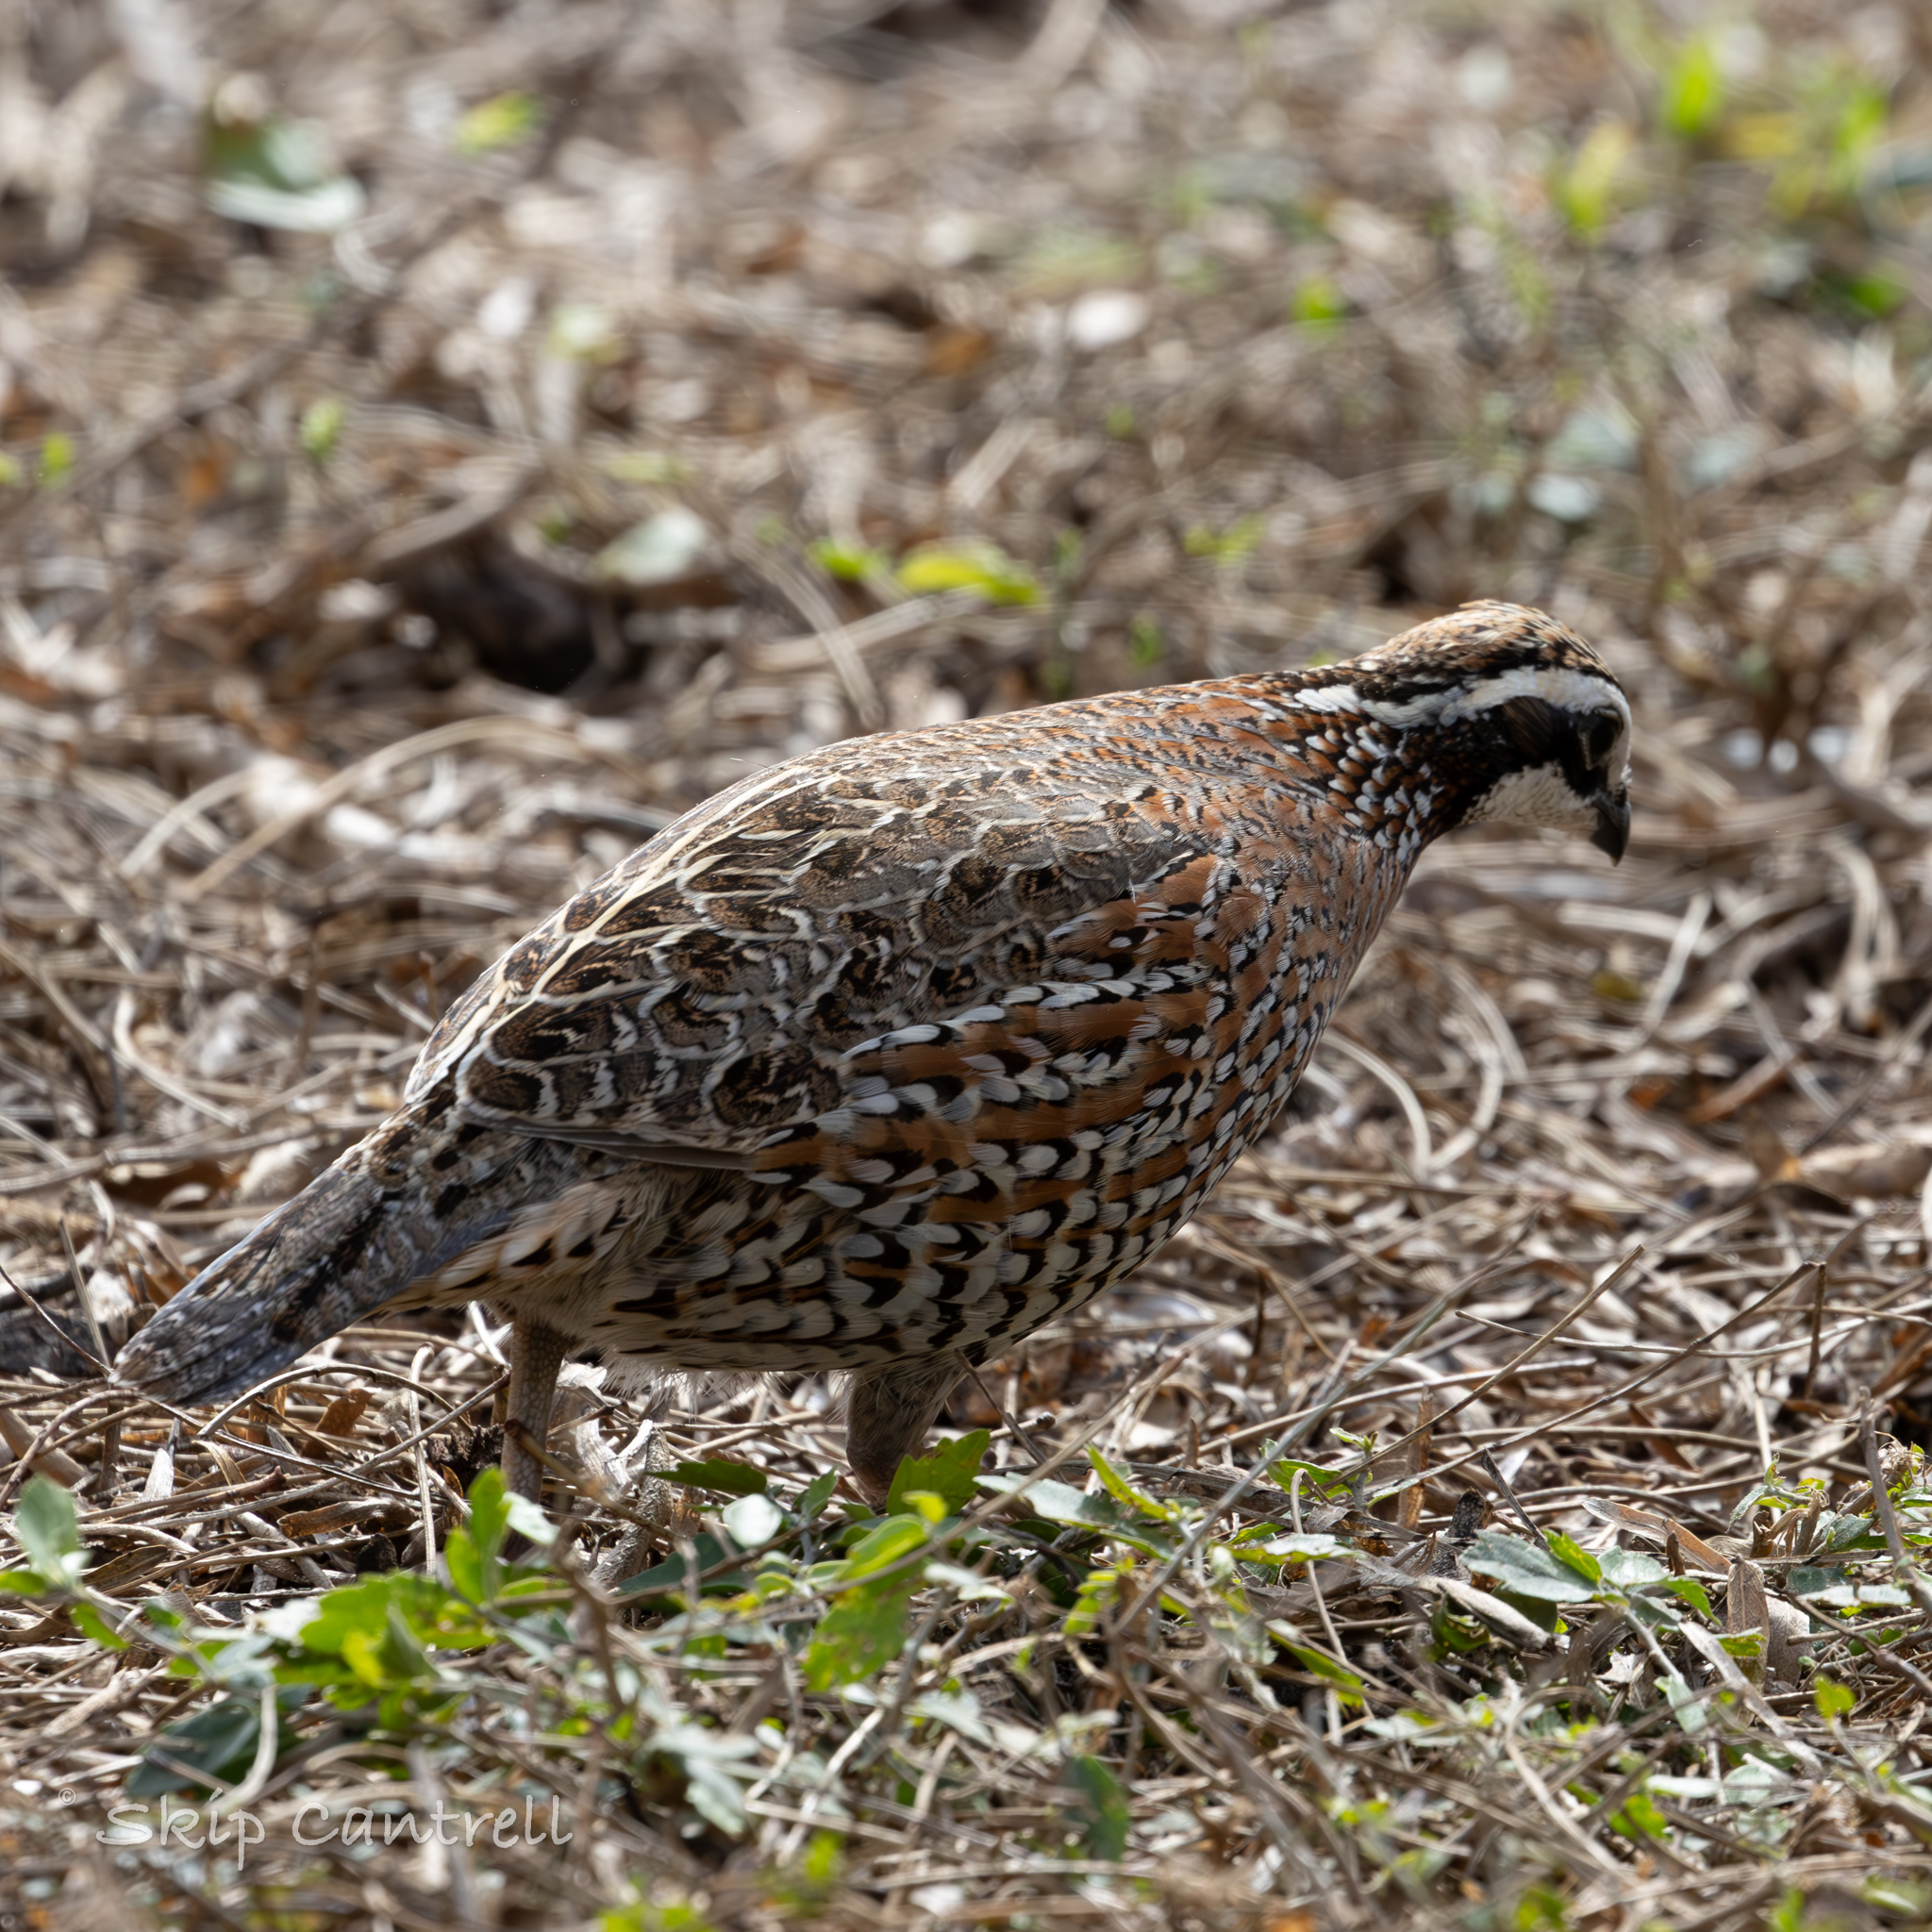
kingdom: Animalia
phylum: Chordata
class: Aves
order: Galliformes
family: Odontophoridae
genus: Colinus
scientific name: Colinus virginianus
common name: Northern bobwhite
